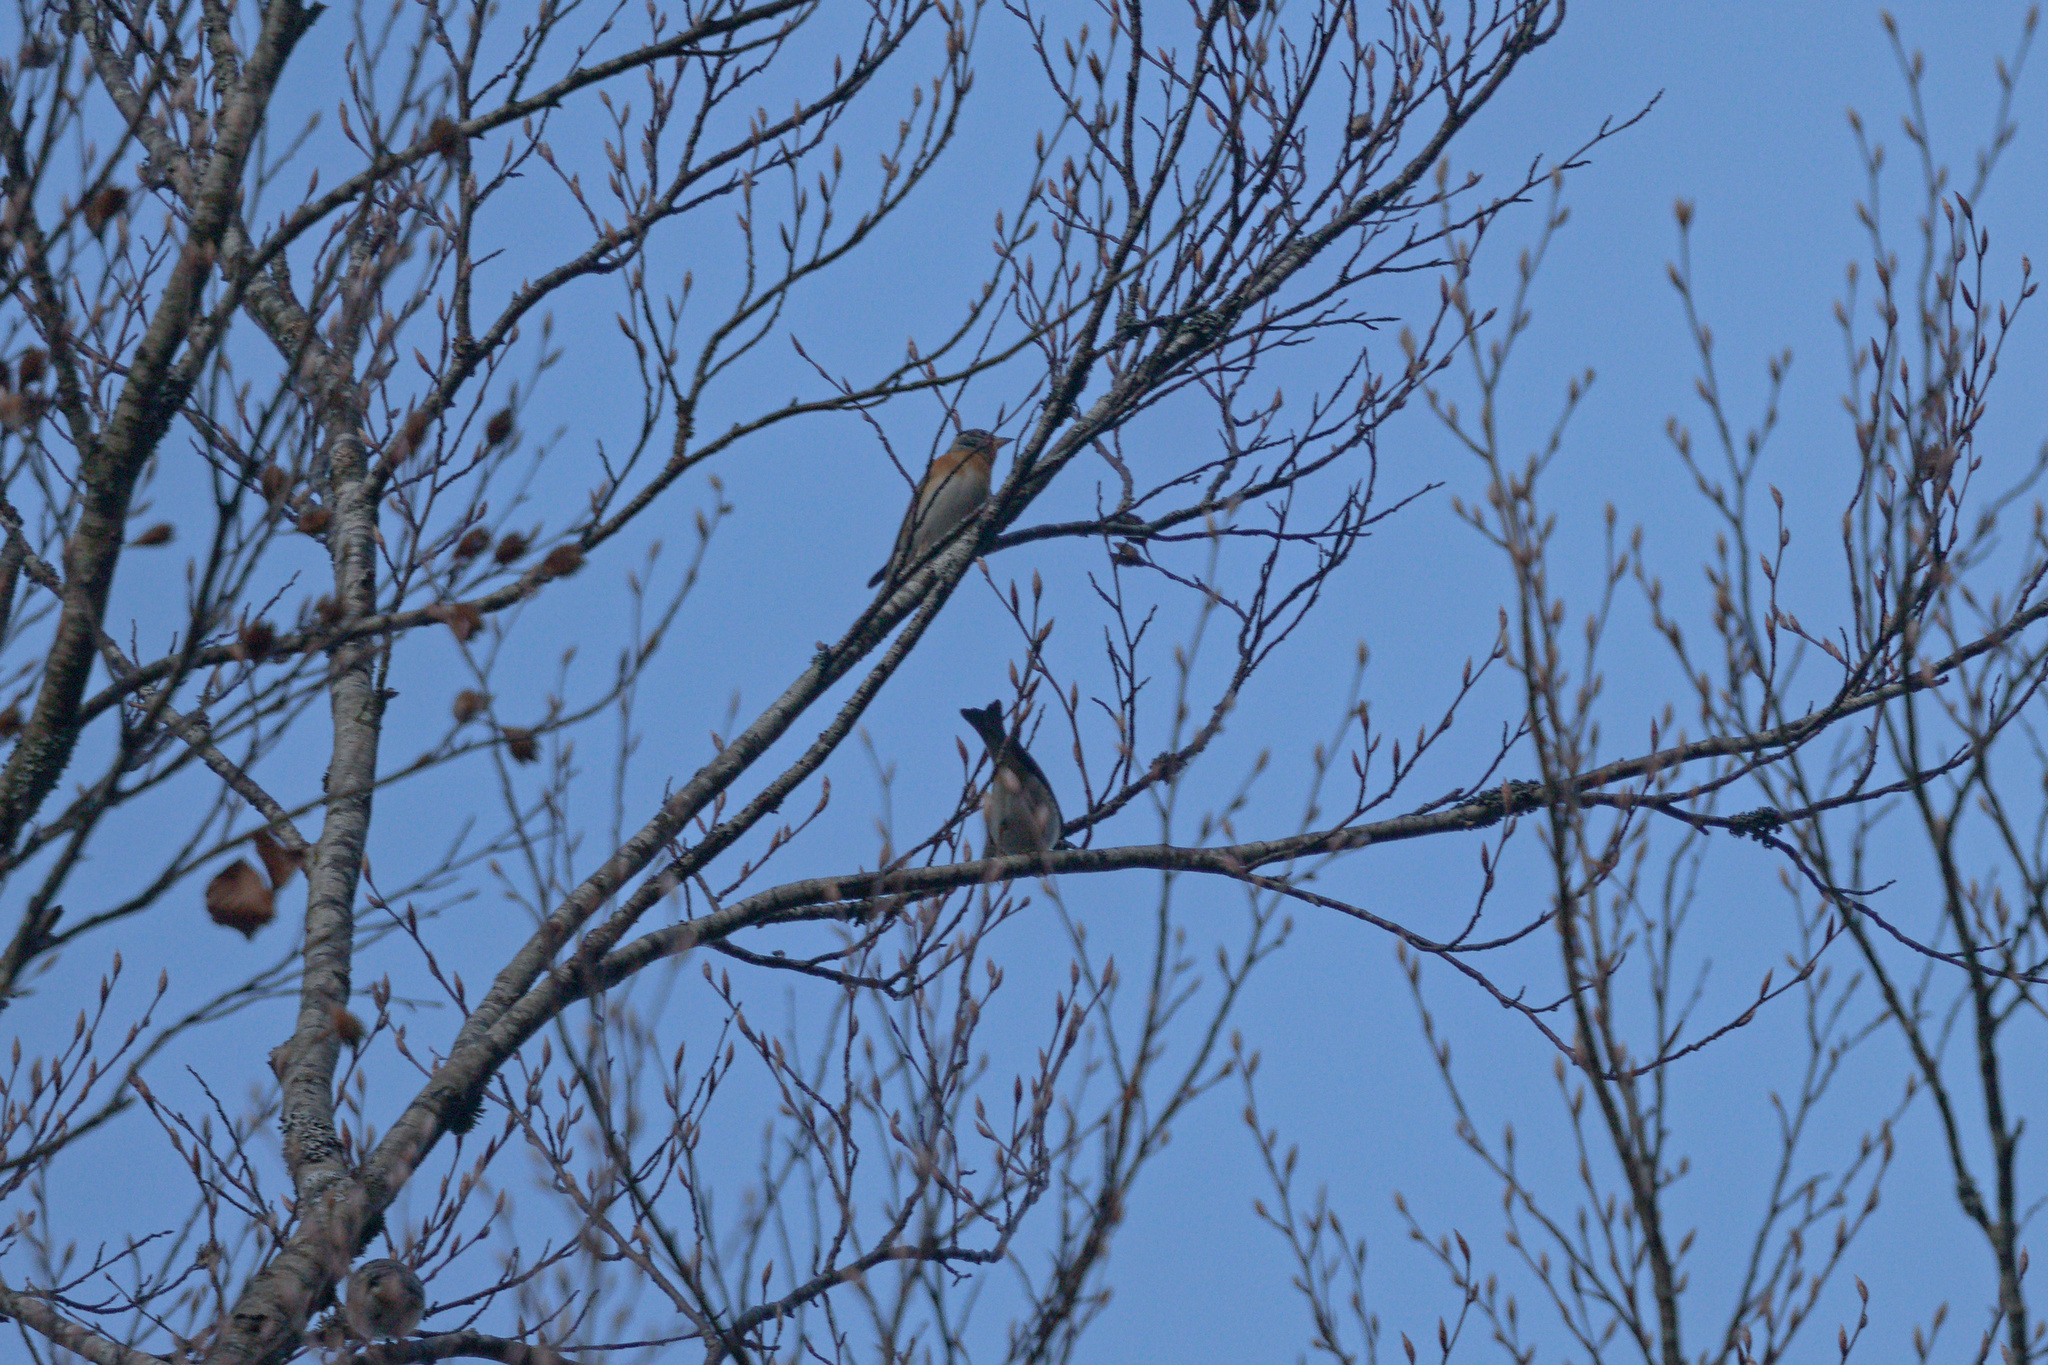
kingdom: Animalia
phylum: Chordata
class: Aves
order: Passeriformes
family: Fringillidae
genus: Fringilla
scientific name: Fringilla montifringilla
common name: Brambling
